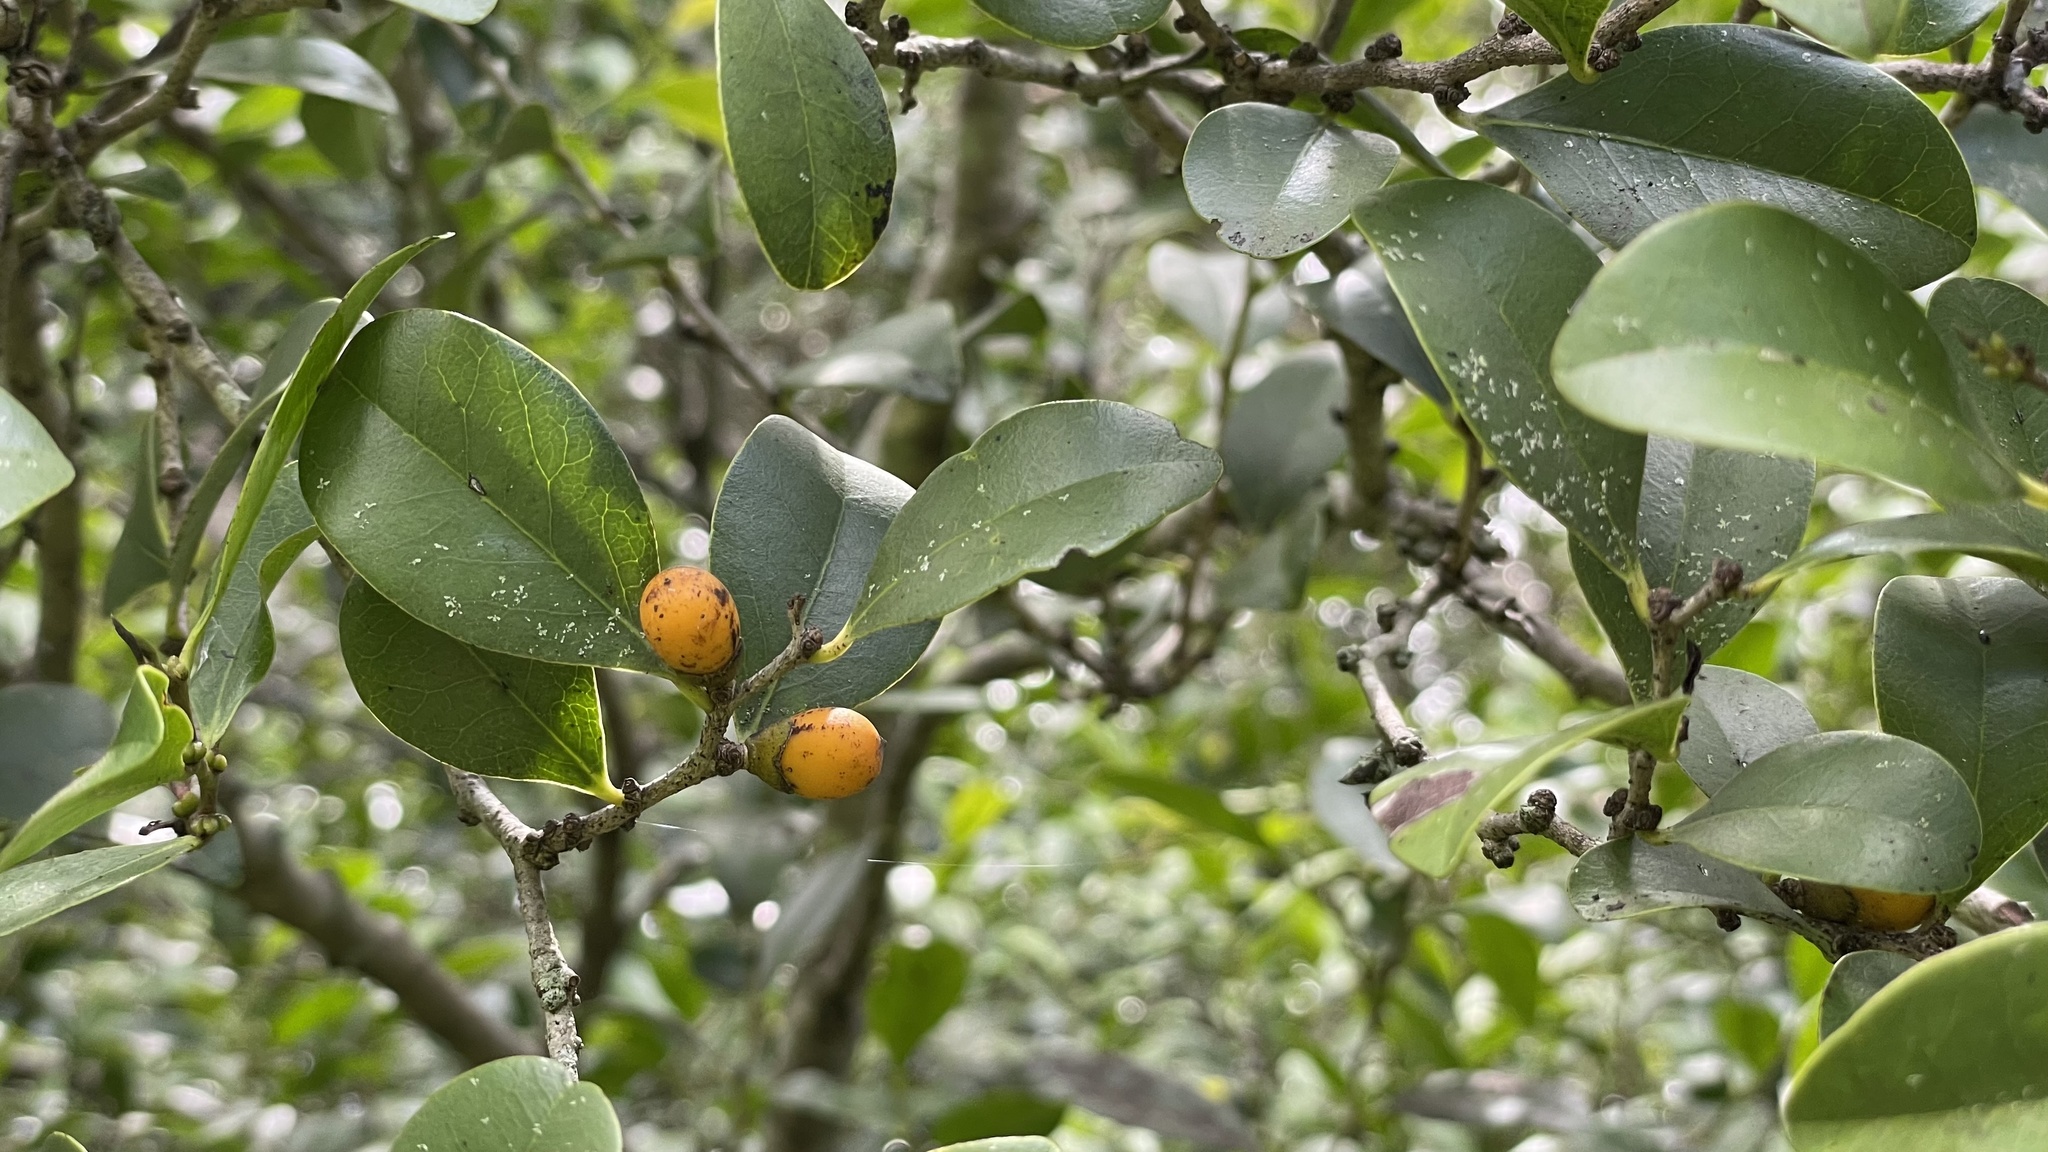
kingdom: Plantae
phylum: Tracheophyta
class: Magnoliopsida
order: Ericales
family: Ebenaceae
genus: Diospyros
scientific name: Diospyros geminata
